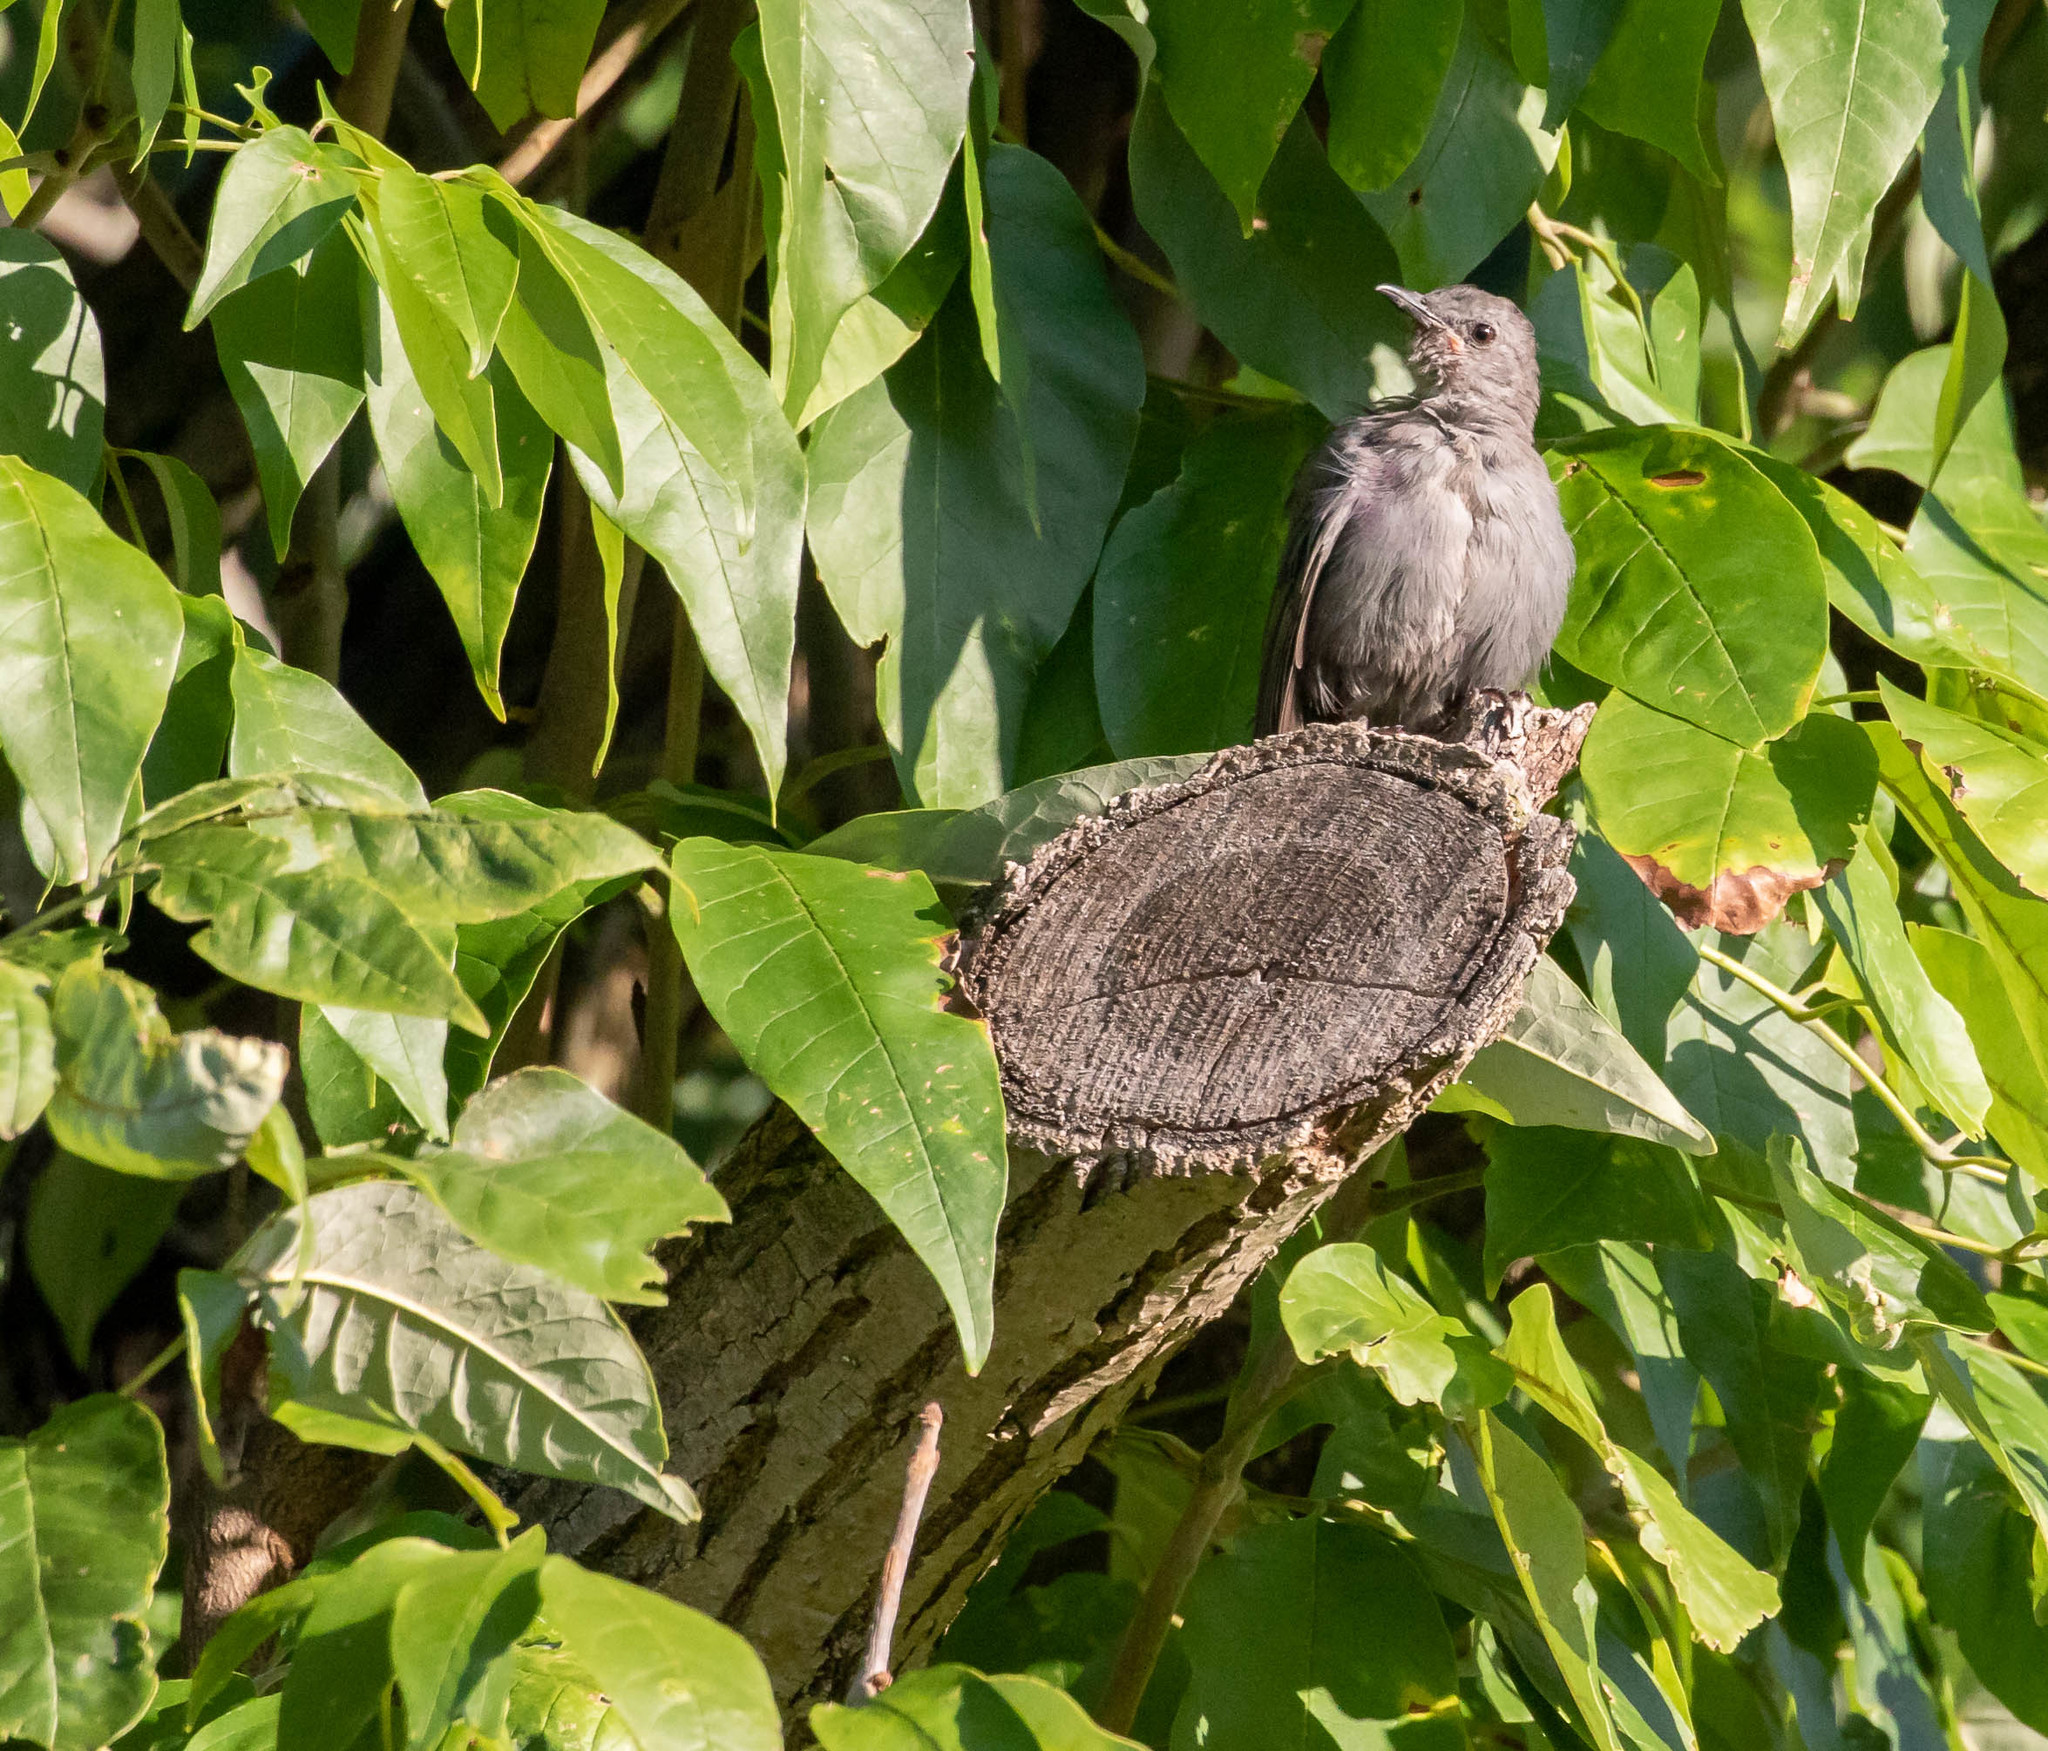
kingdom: Animalia
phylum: Chordata
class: Aves
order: Passeriformes
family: Mimidae
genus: Dumetella
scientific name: Dumetella carolinensis
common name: Gray catbird
